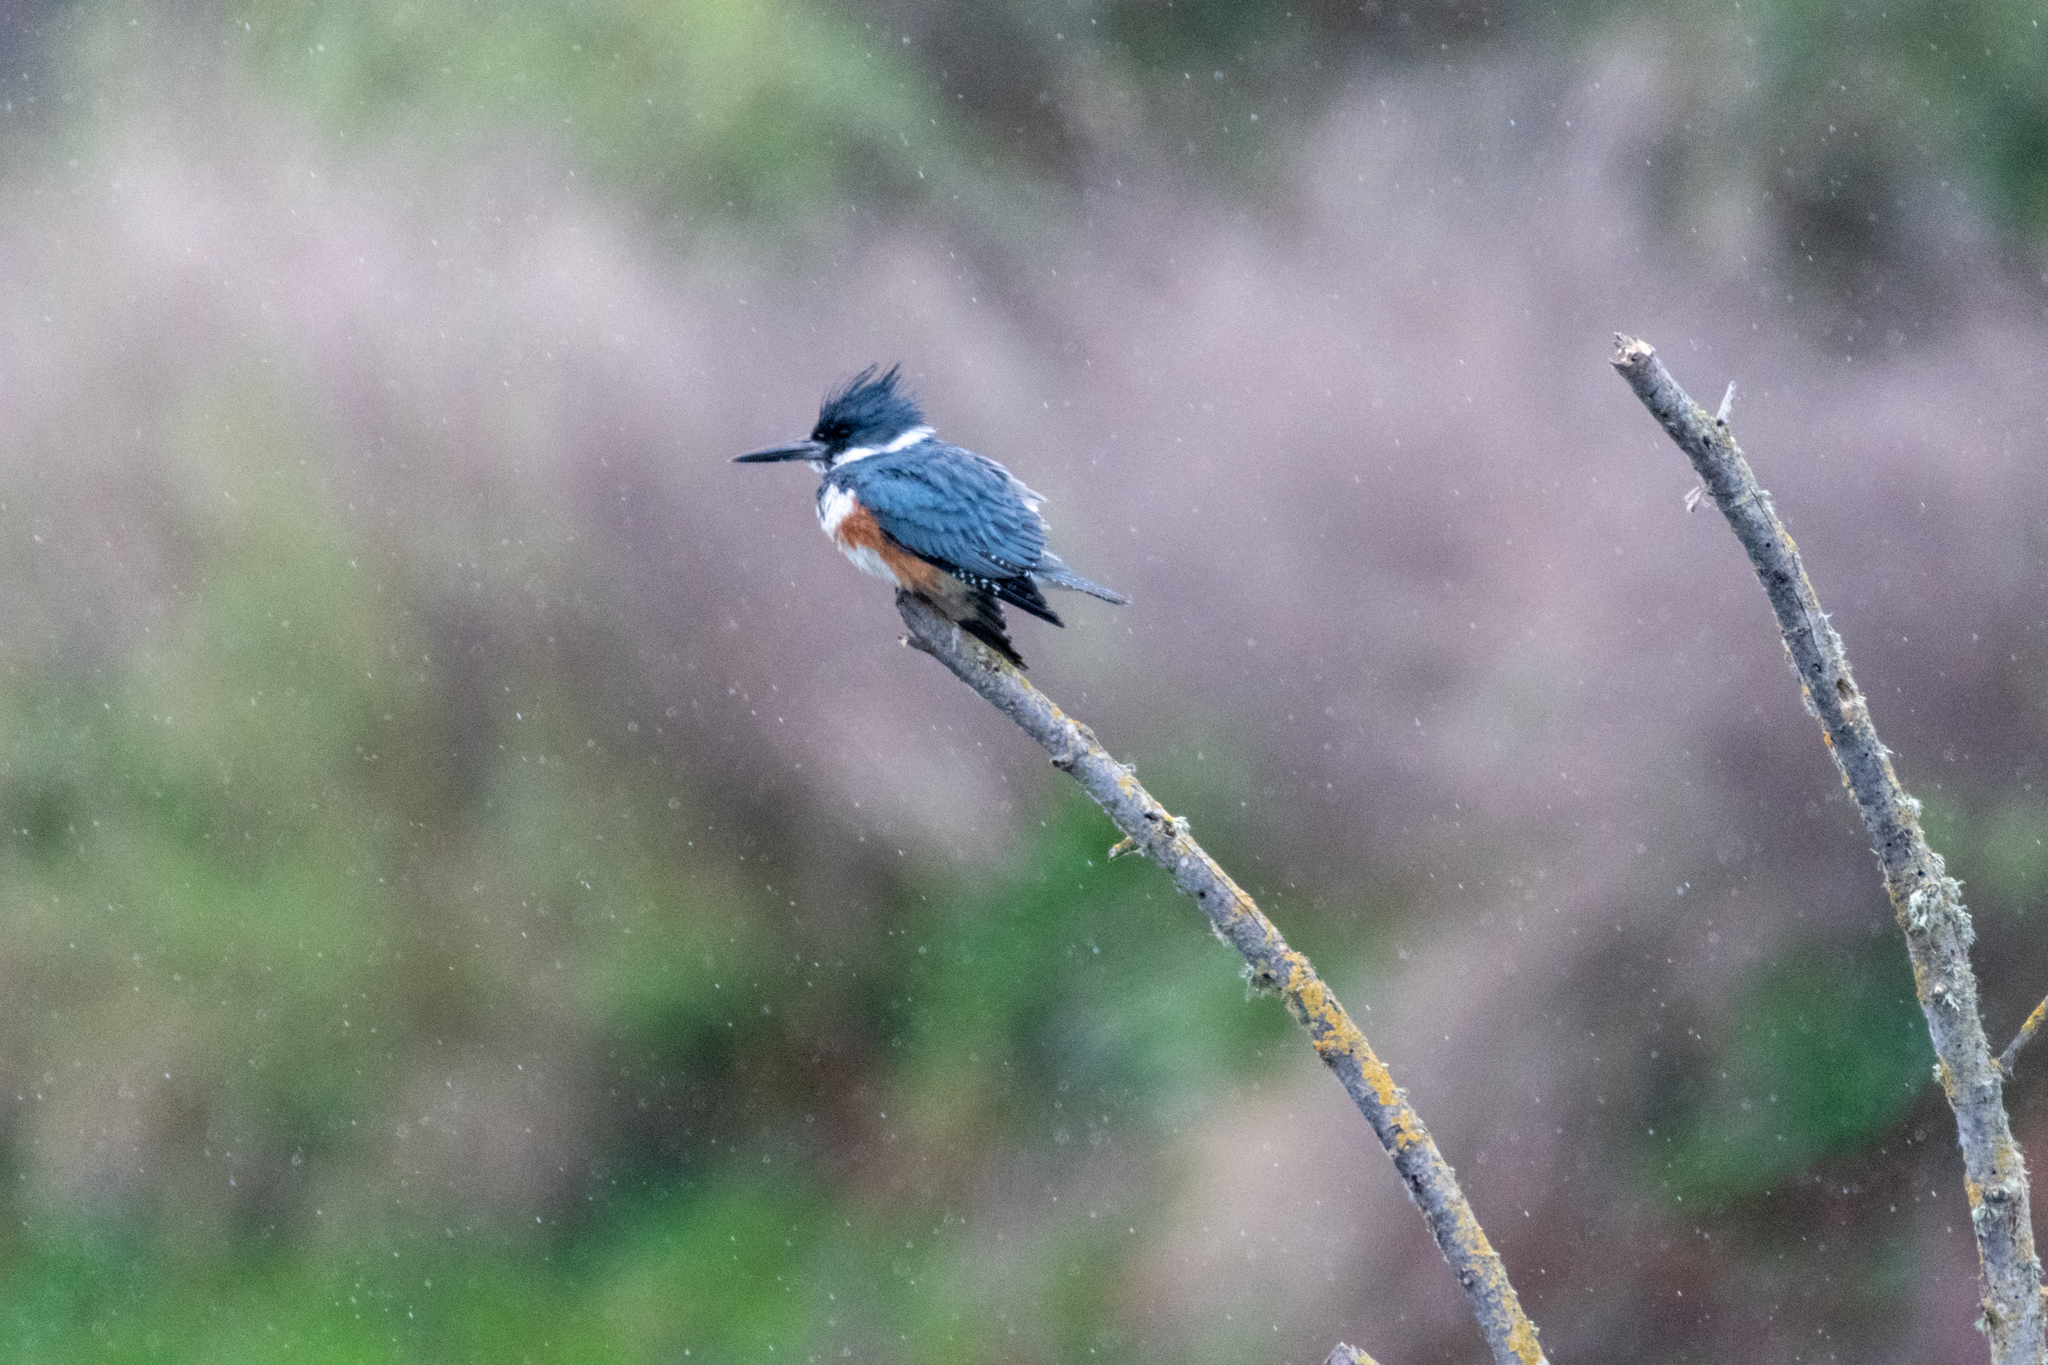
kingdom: Animalia
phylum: Chordata
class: Aves
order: Coraciiformes
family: Alcedinidae
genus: Megaceryle
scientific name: Megaceryle alcyon
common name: Belted kingfisher
